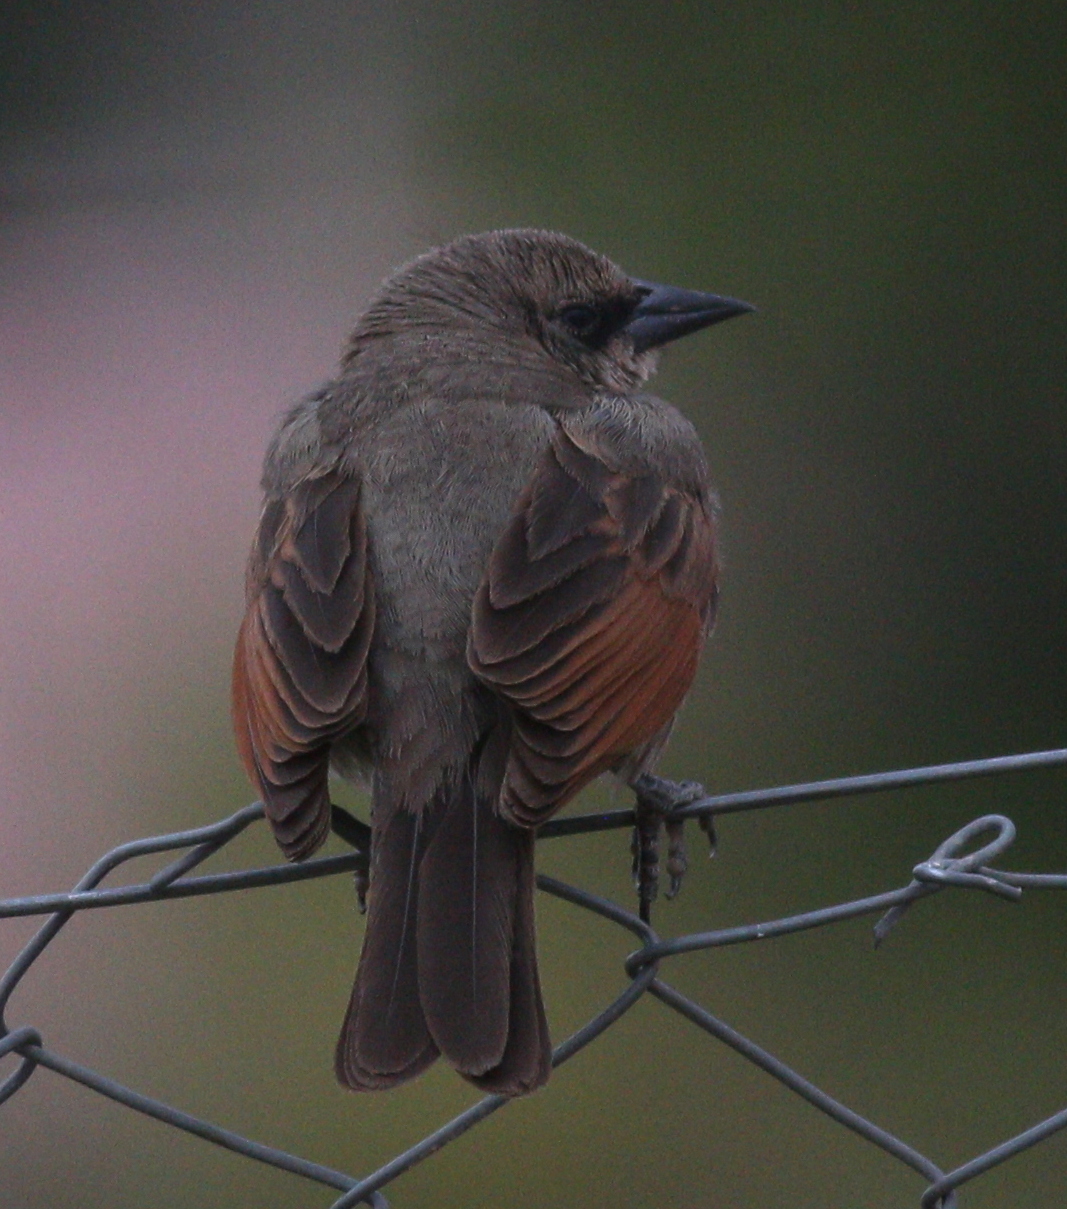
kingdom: Animalia
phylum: Chordata
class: Aves
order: Passeriformes
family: Icteridae
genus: Agelaioides
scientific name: Agelaioides badius
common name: Baywing
